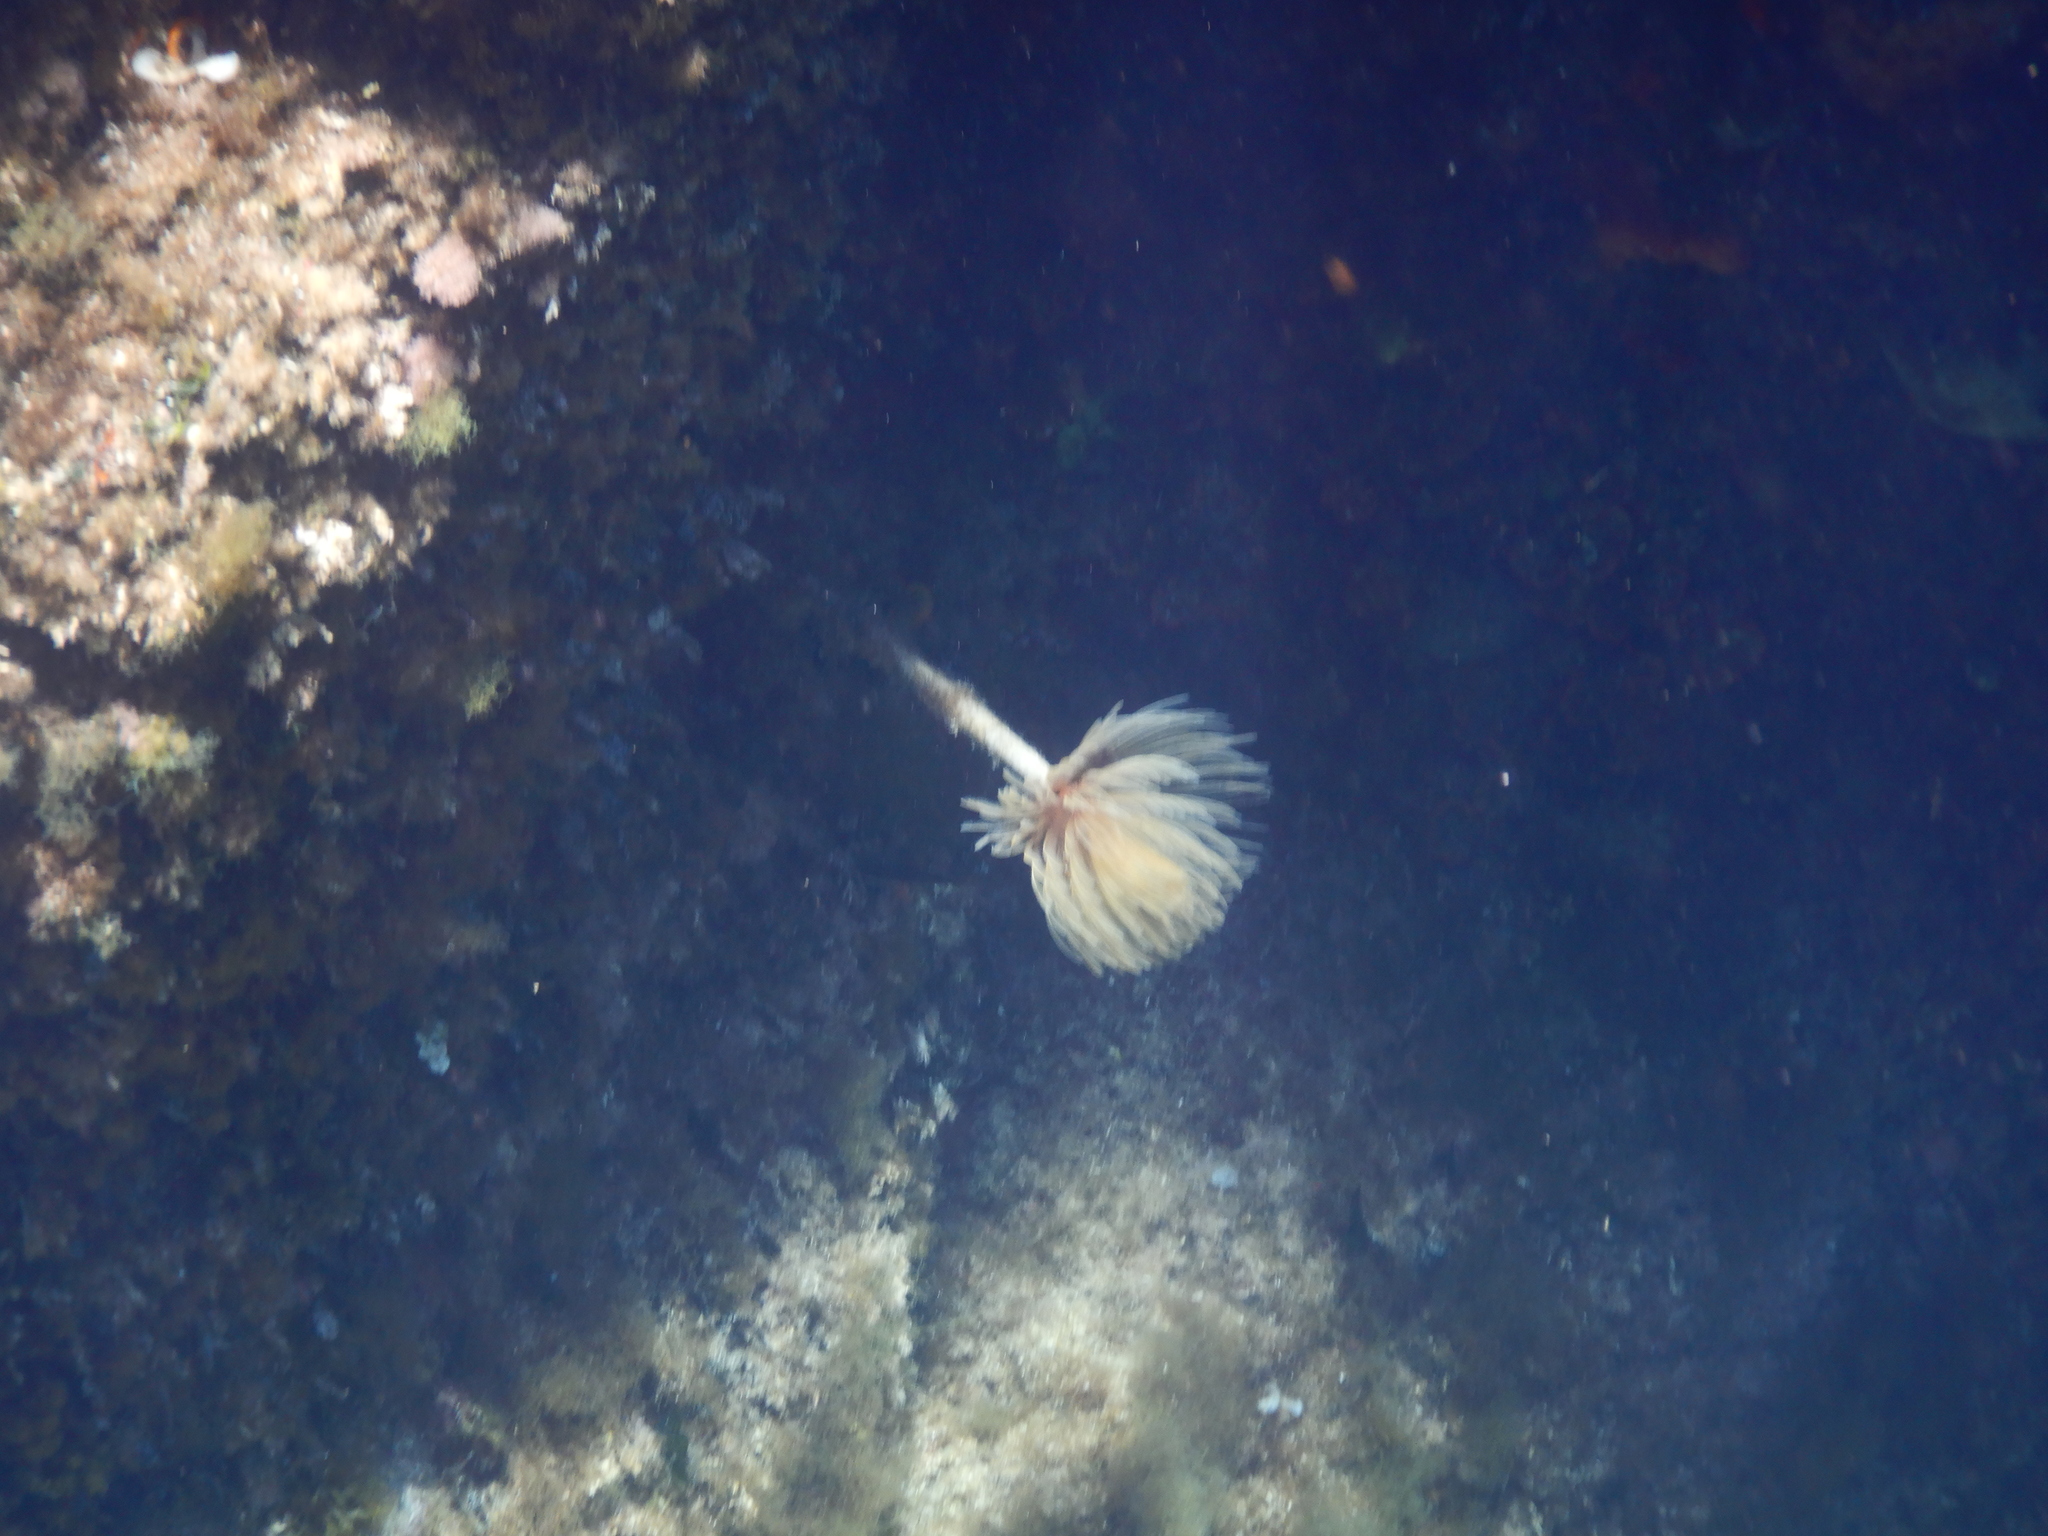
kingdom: Animalia
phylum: Annelida
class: Polychaeta
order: Sabellida
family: Sabellidae
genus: Sabella
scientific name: Sabella spallanzanii
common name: Feather duster worm
